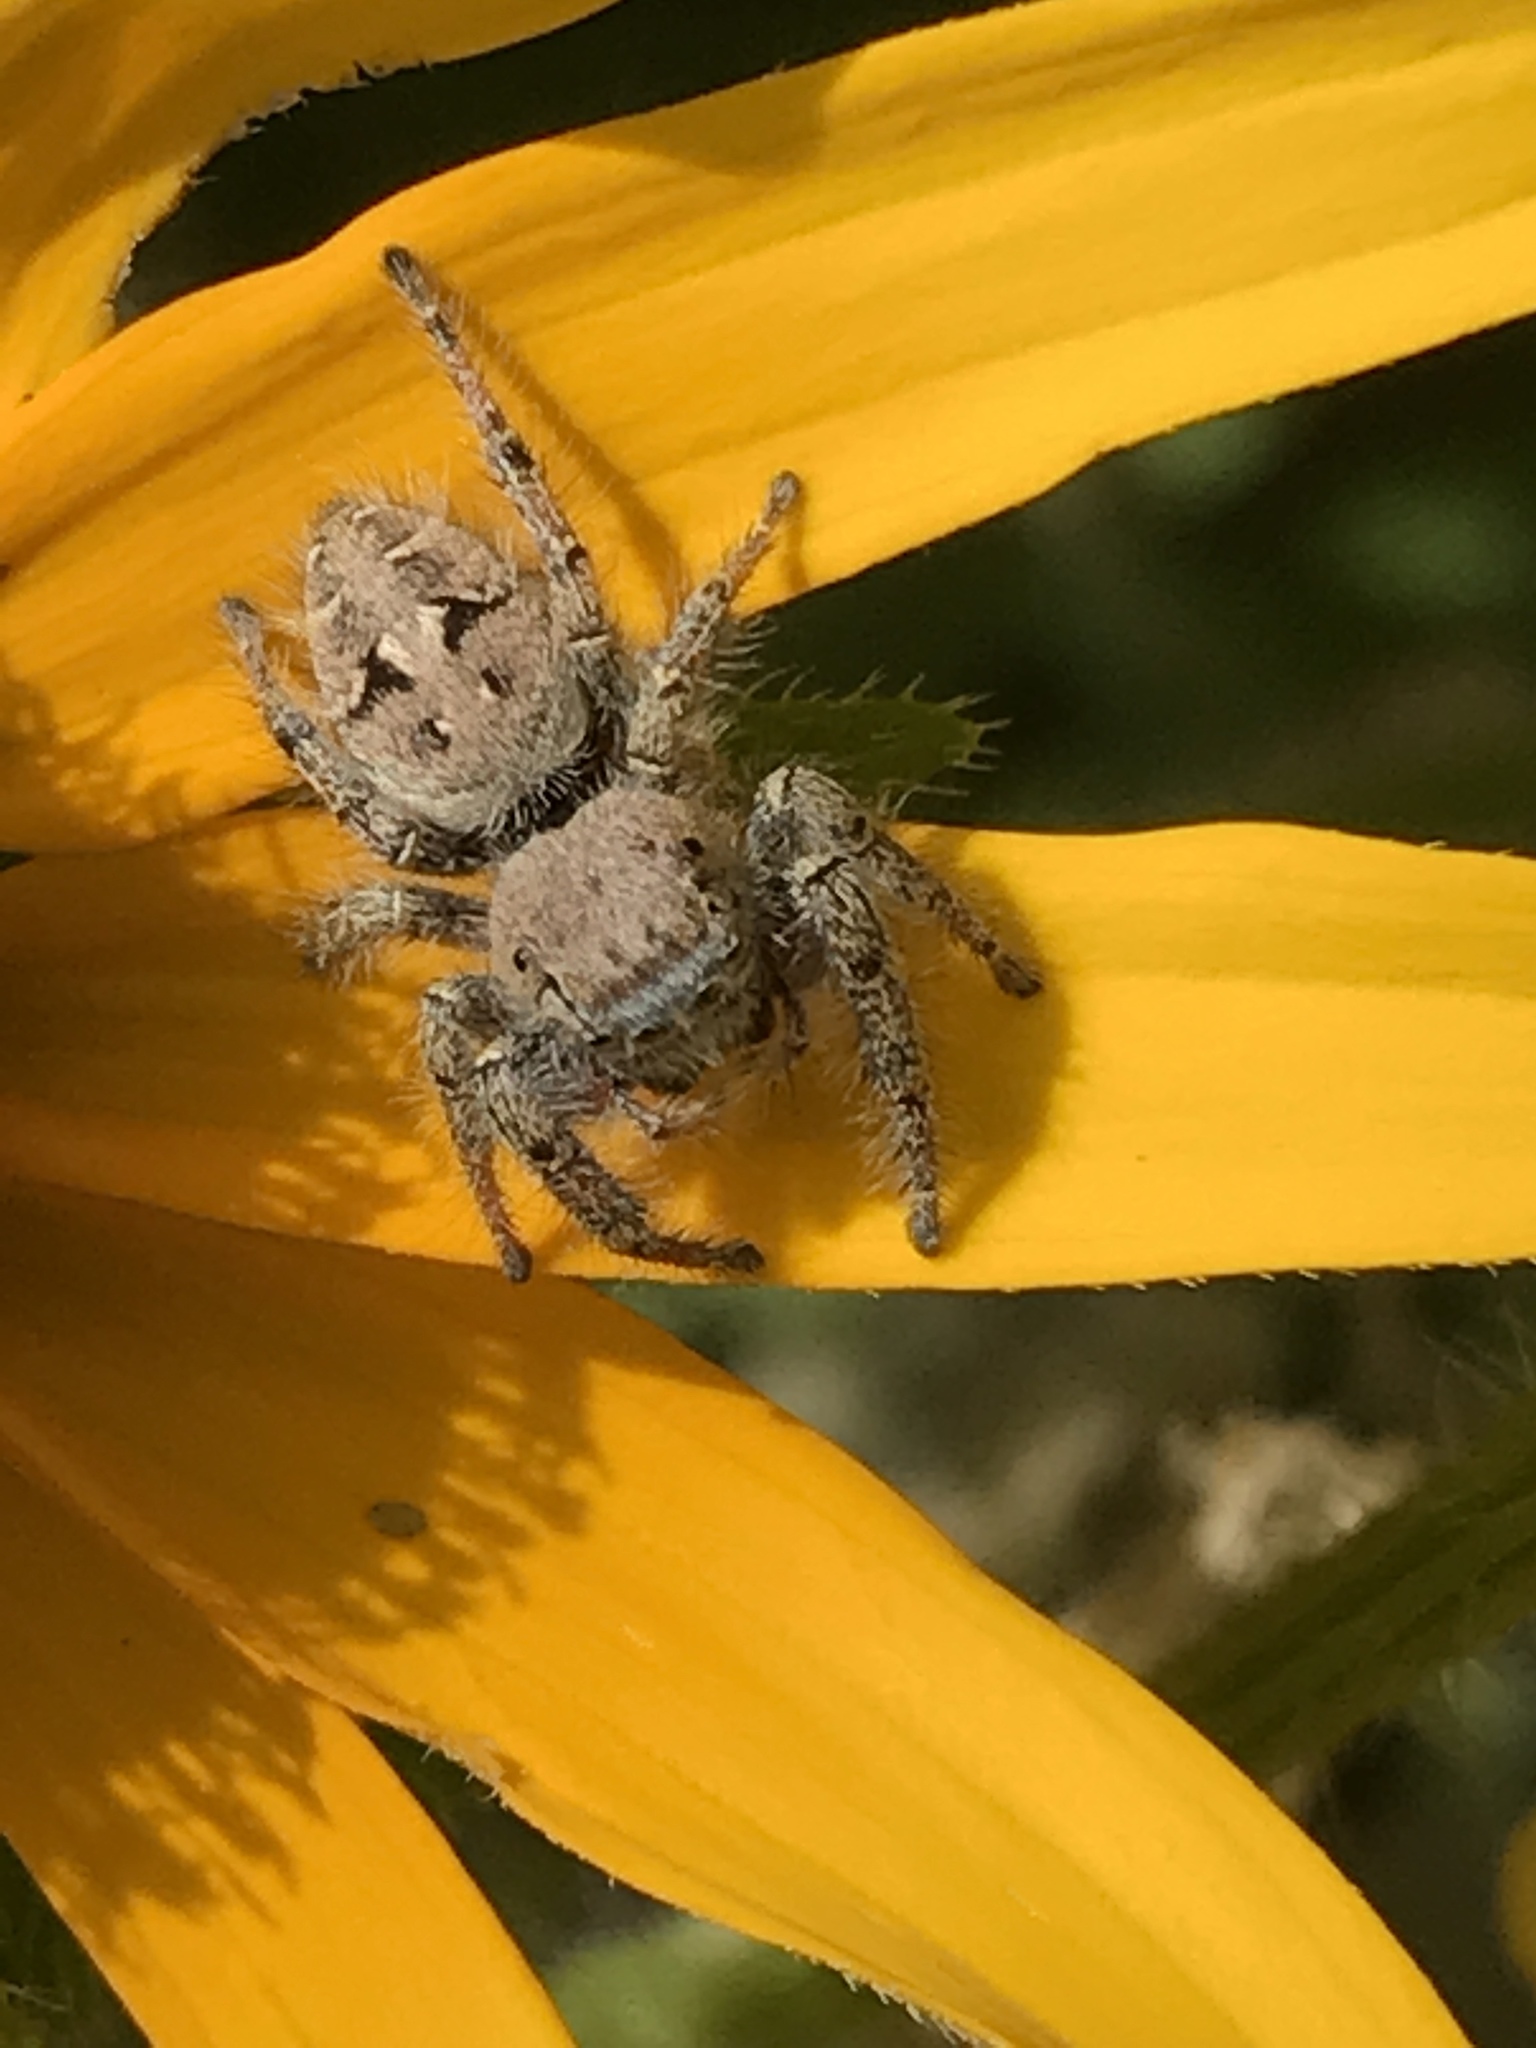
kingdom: Animalia
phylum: Arthropoda
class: Arachnida
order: Araneae
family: Salticidae
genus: Phidippus
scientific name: Phidippus carolinensis
